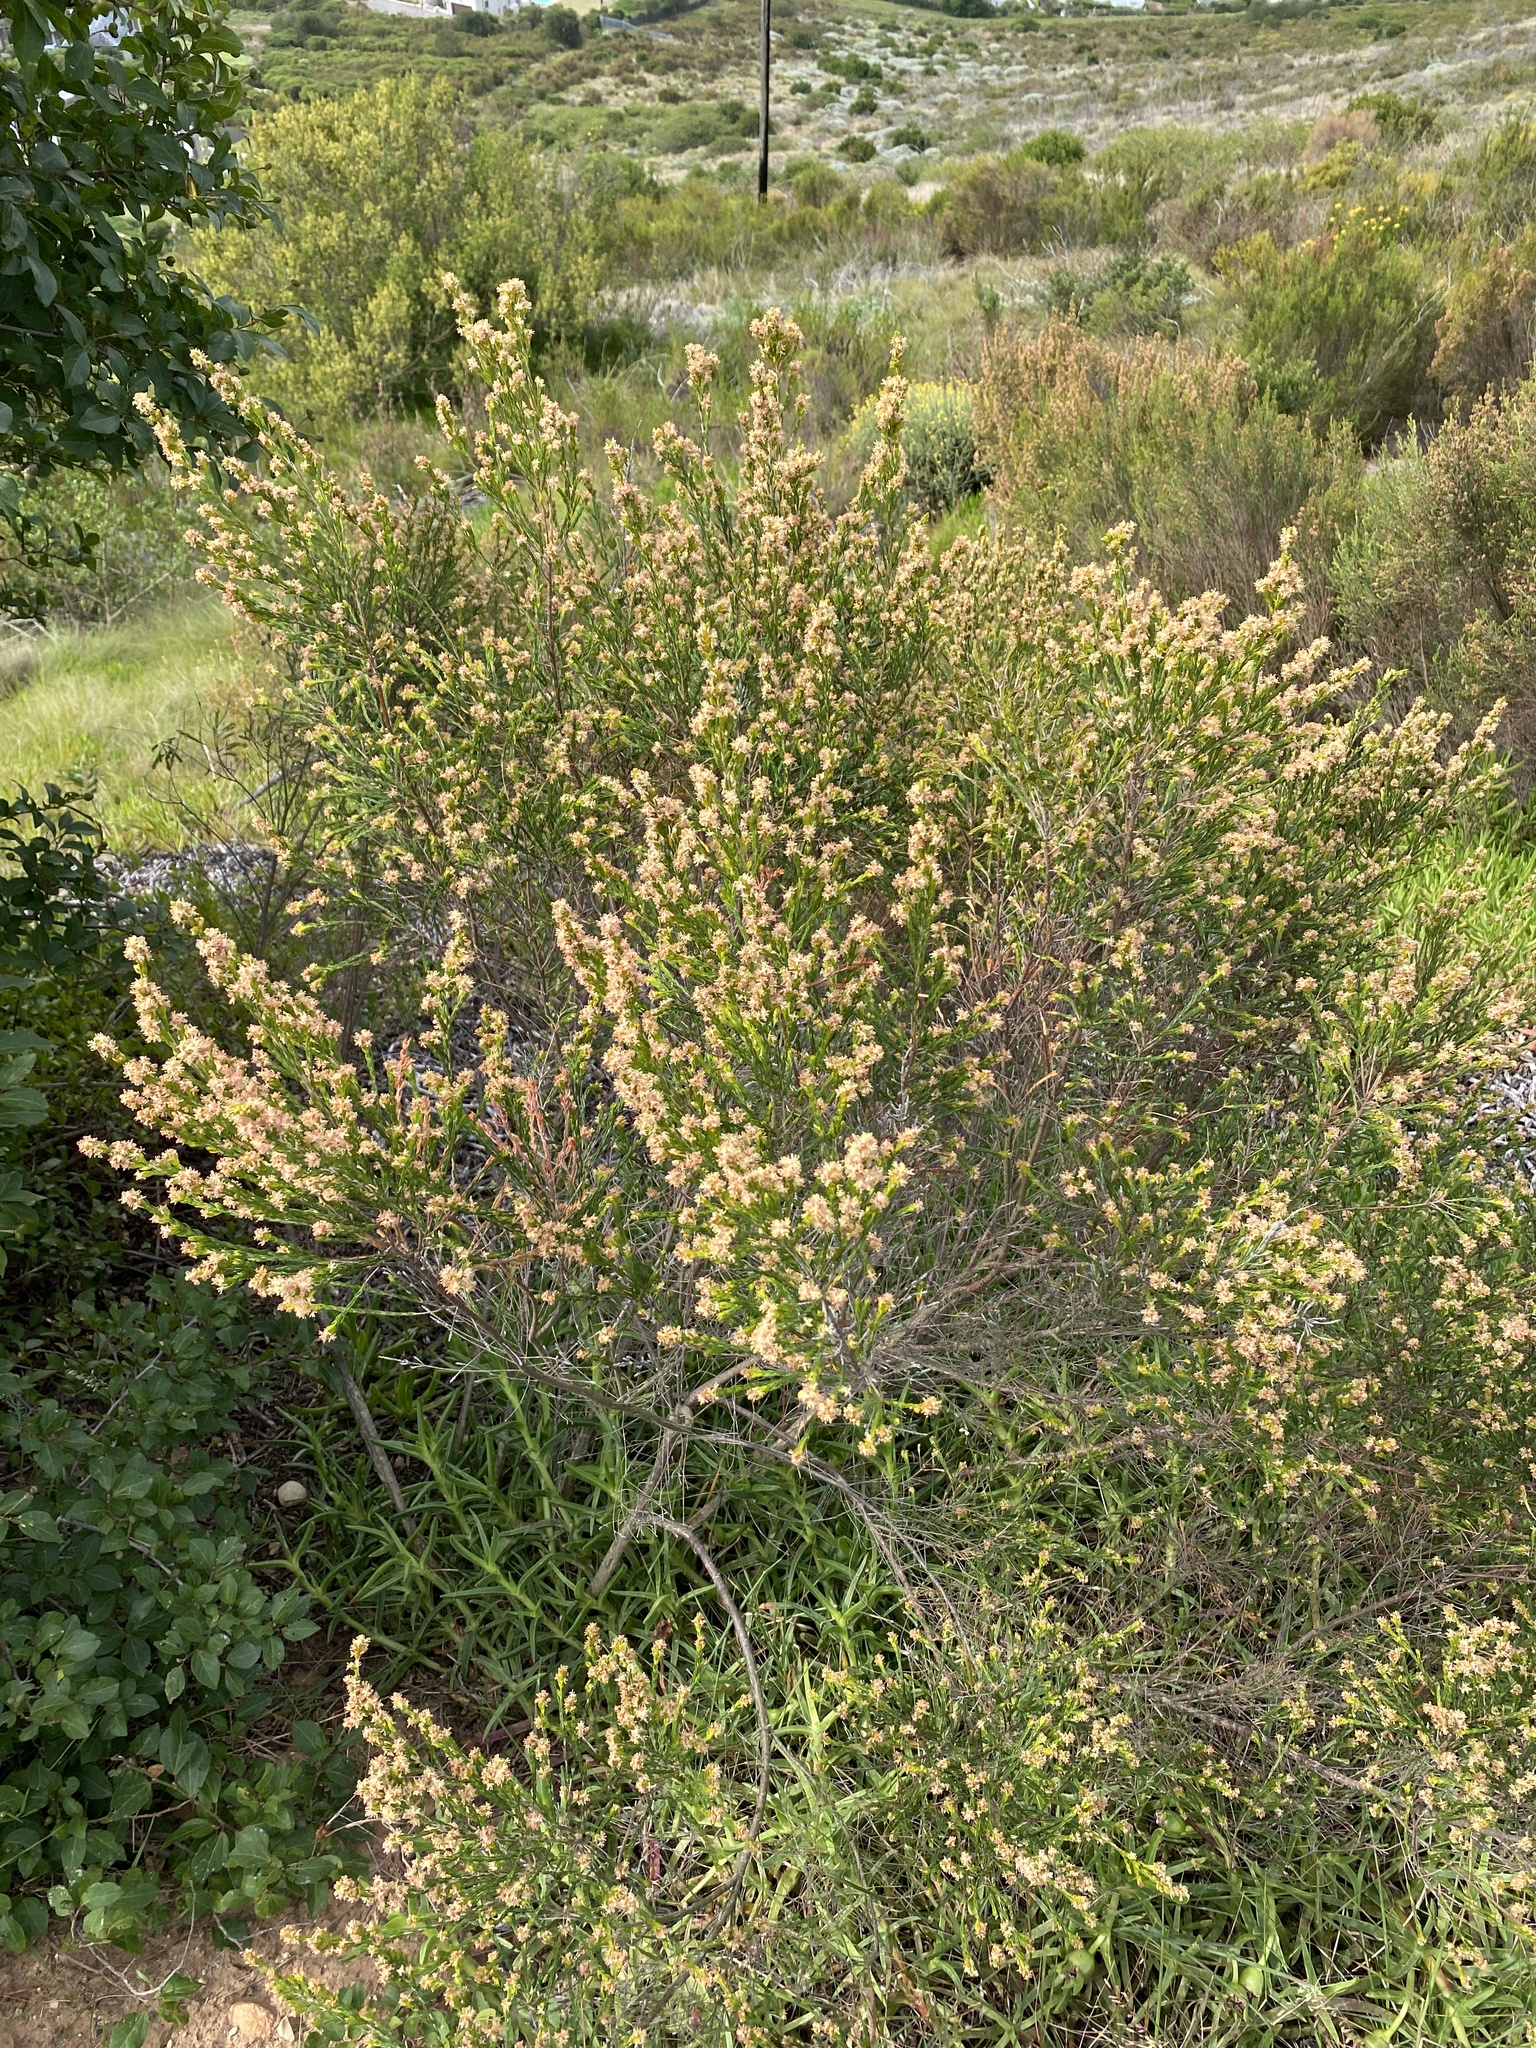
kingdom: Plantae
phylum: Tracheophyta
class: Magnoliopsida
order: Malvales
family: Thymelaeaceae
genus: Passerina
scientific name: Passerina corymbosa
